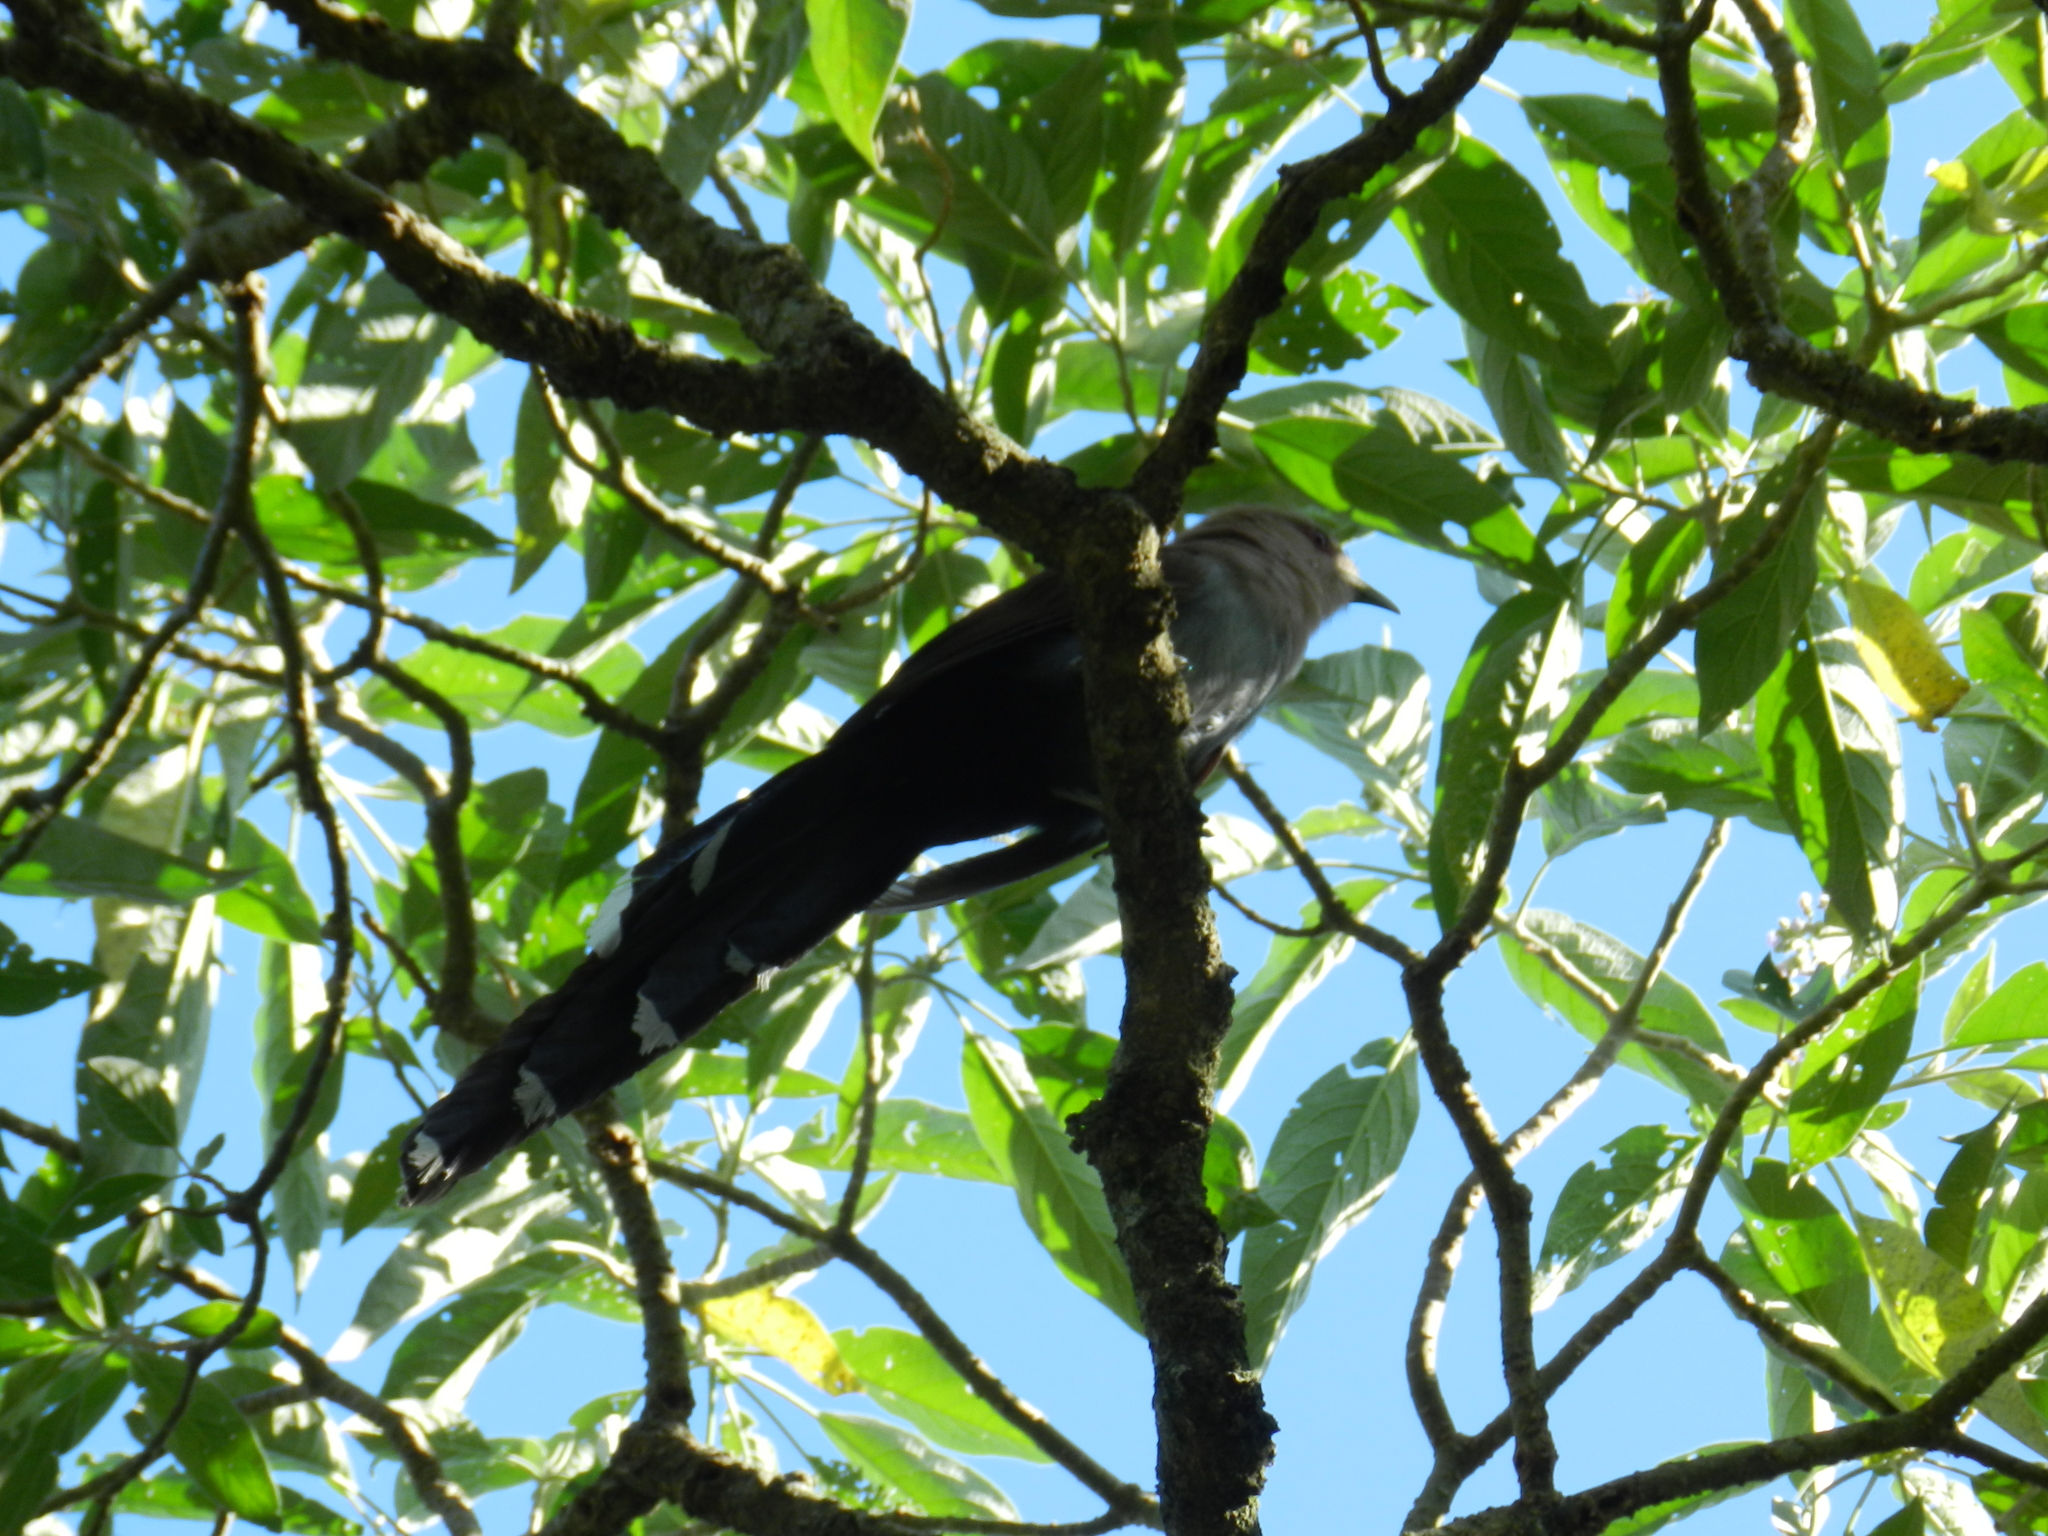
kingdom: Animalia
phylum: Chordata
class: Aves
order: Cuculiformes
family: Cuculidae
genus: Piaya
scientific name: Piaya cayana
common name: Squirrel cuckoo
